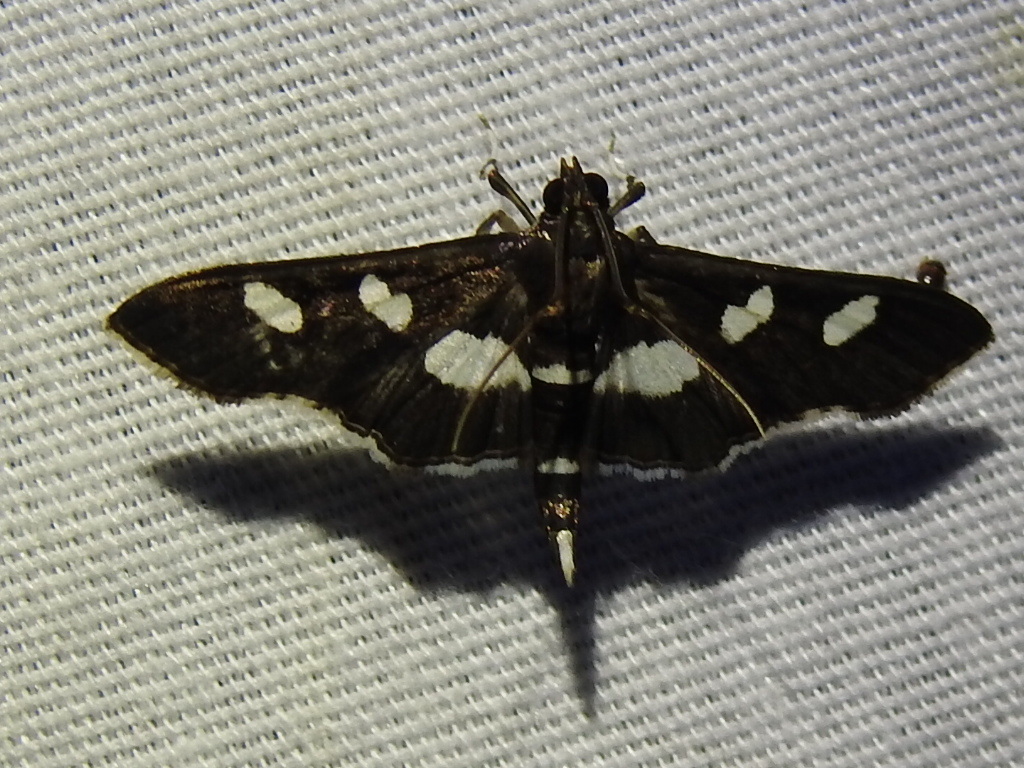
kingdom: Animalia
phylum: Arthropoda
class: Insecta
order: Lepidoptera
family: Crambidae
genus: Desmia
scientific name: Desmia
